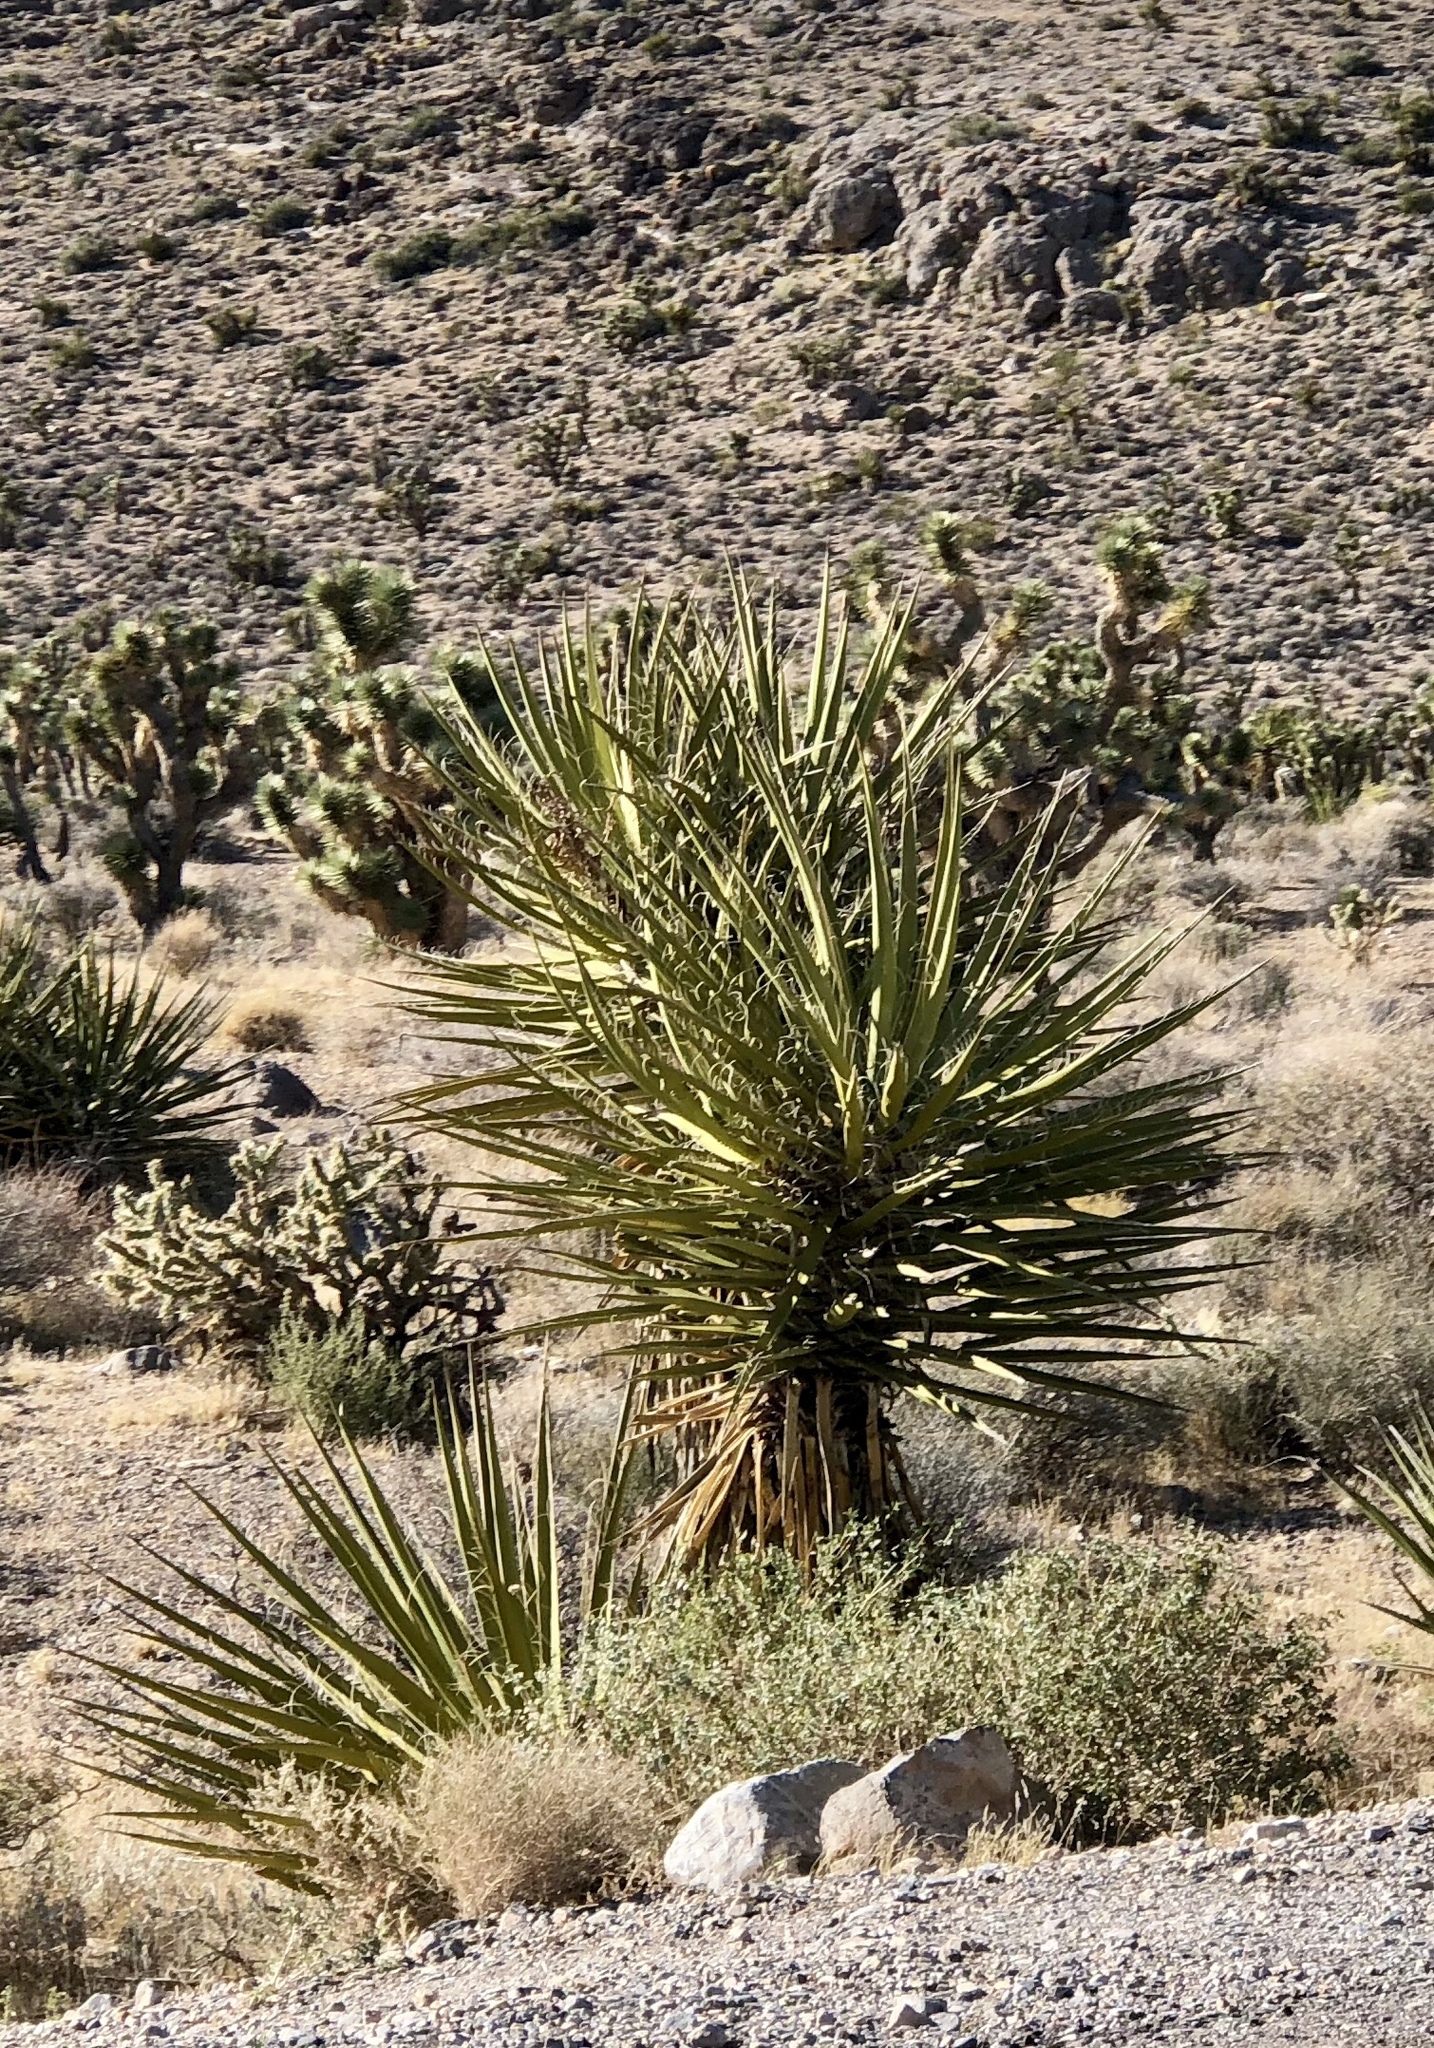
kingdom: Plantae
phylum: Tracheophyta
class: Liliopsida
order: Asparagales
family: Asparagaceae
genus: Yucca
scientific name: Yucca schidigera
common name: Mojave yucca
